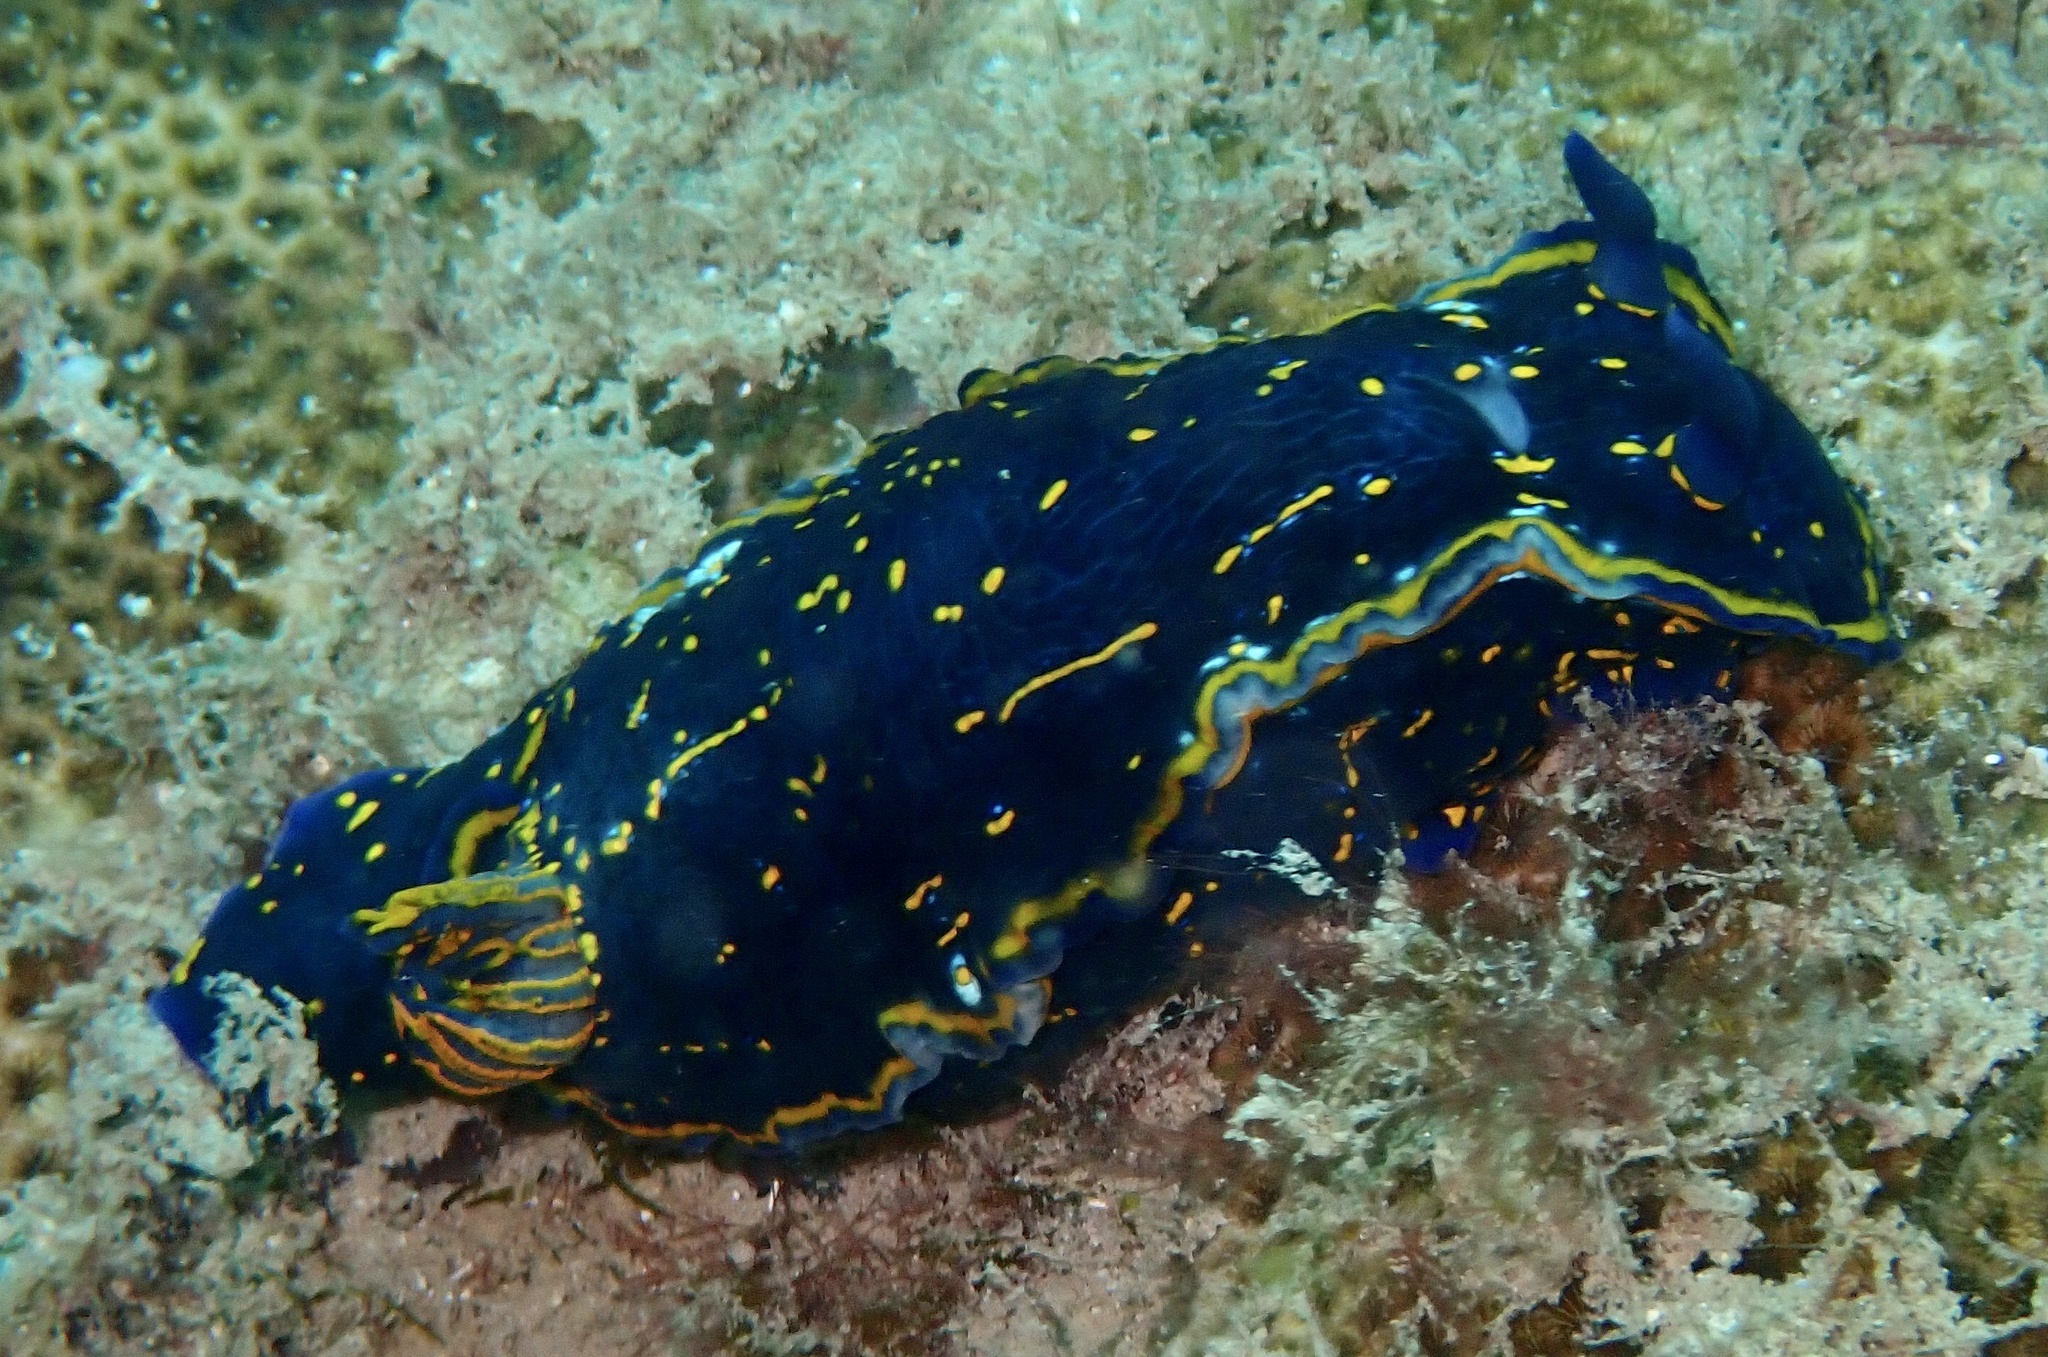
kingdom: Animalia
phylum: Mollusca
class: Gastropoda
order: Nudibranchia
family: Chromodorididae
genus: Felimare
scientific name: Felimare tema
